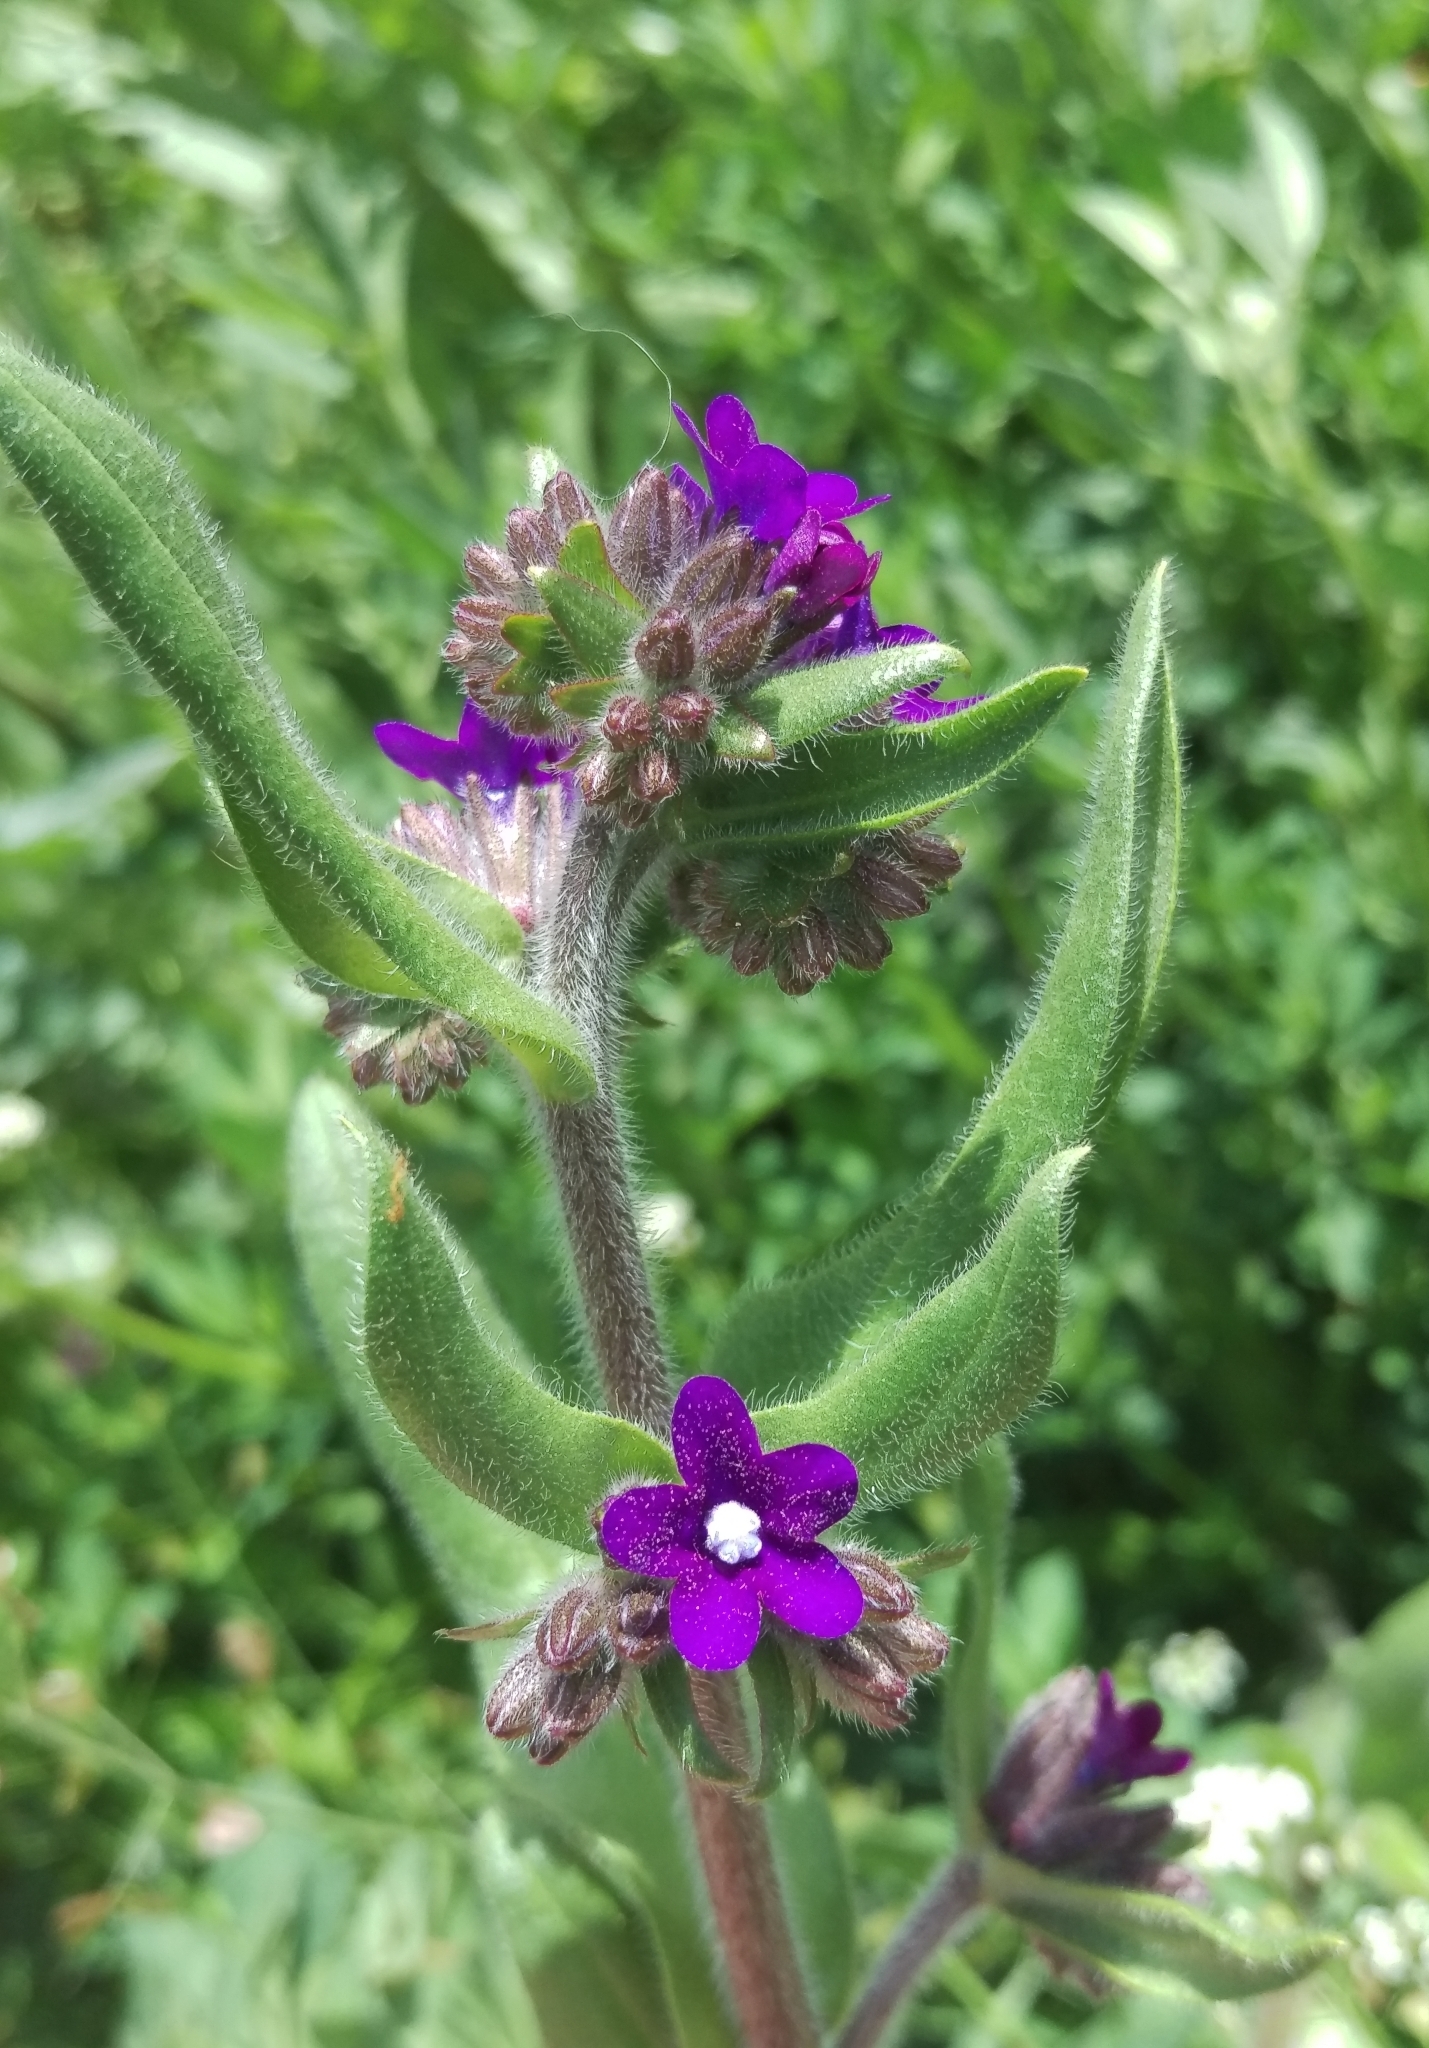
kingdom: Plantae
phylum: Tracheophyta
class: Magnoliopsida
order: Boraginales
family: Boraginaceae
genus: Anchusa
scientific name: Anchusa officinalis
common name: Alkanet
